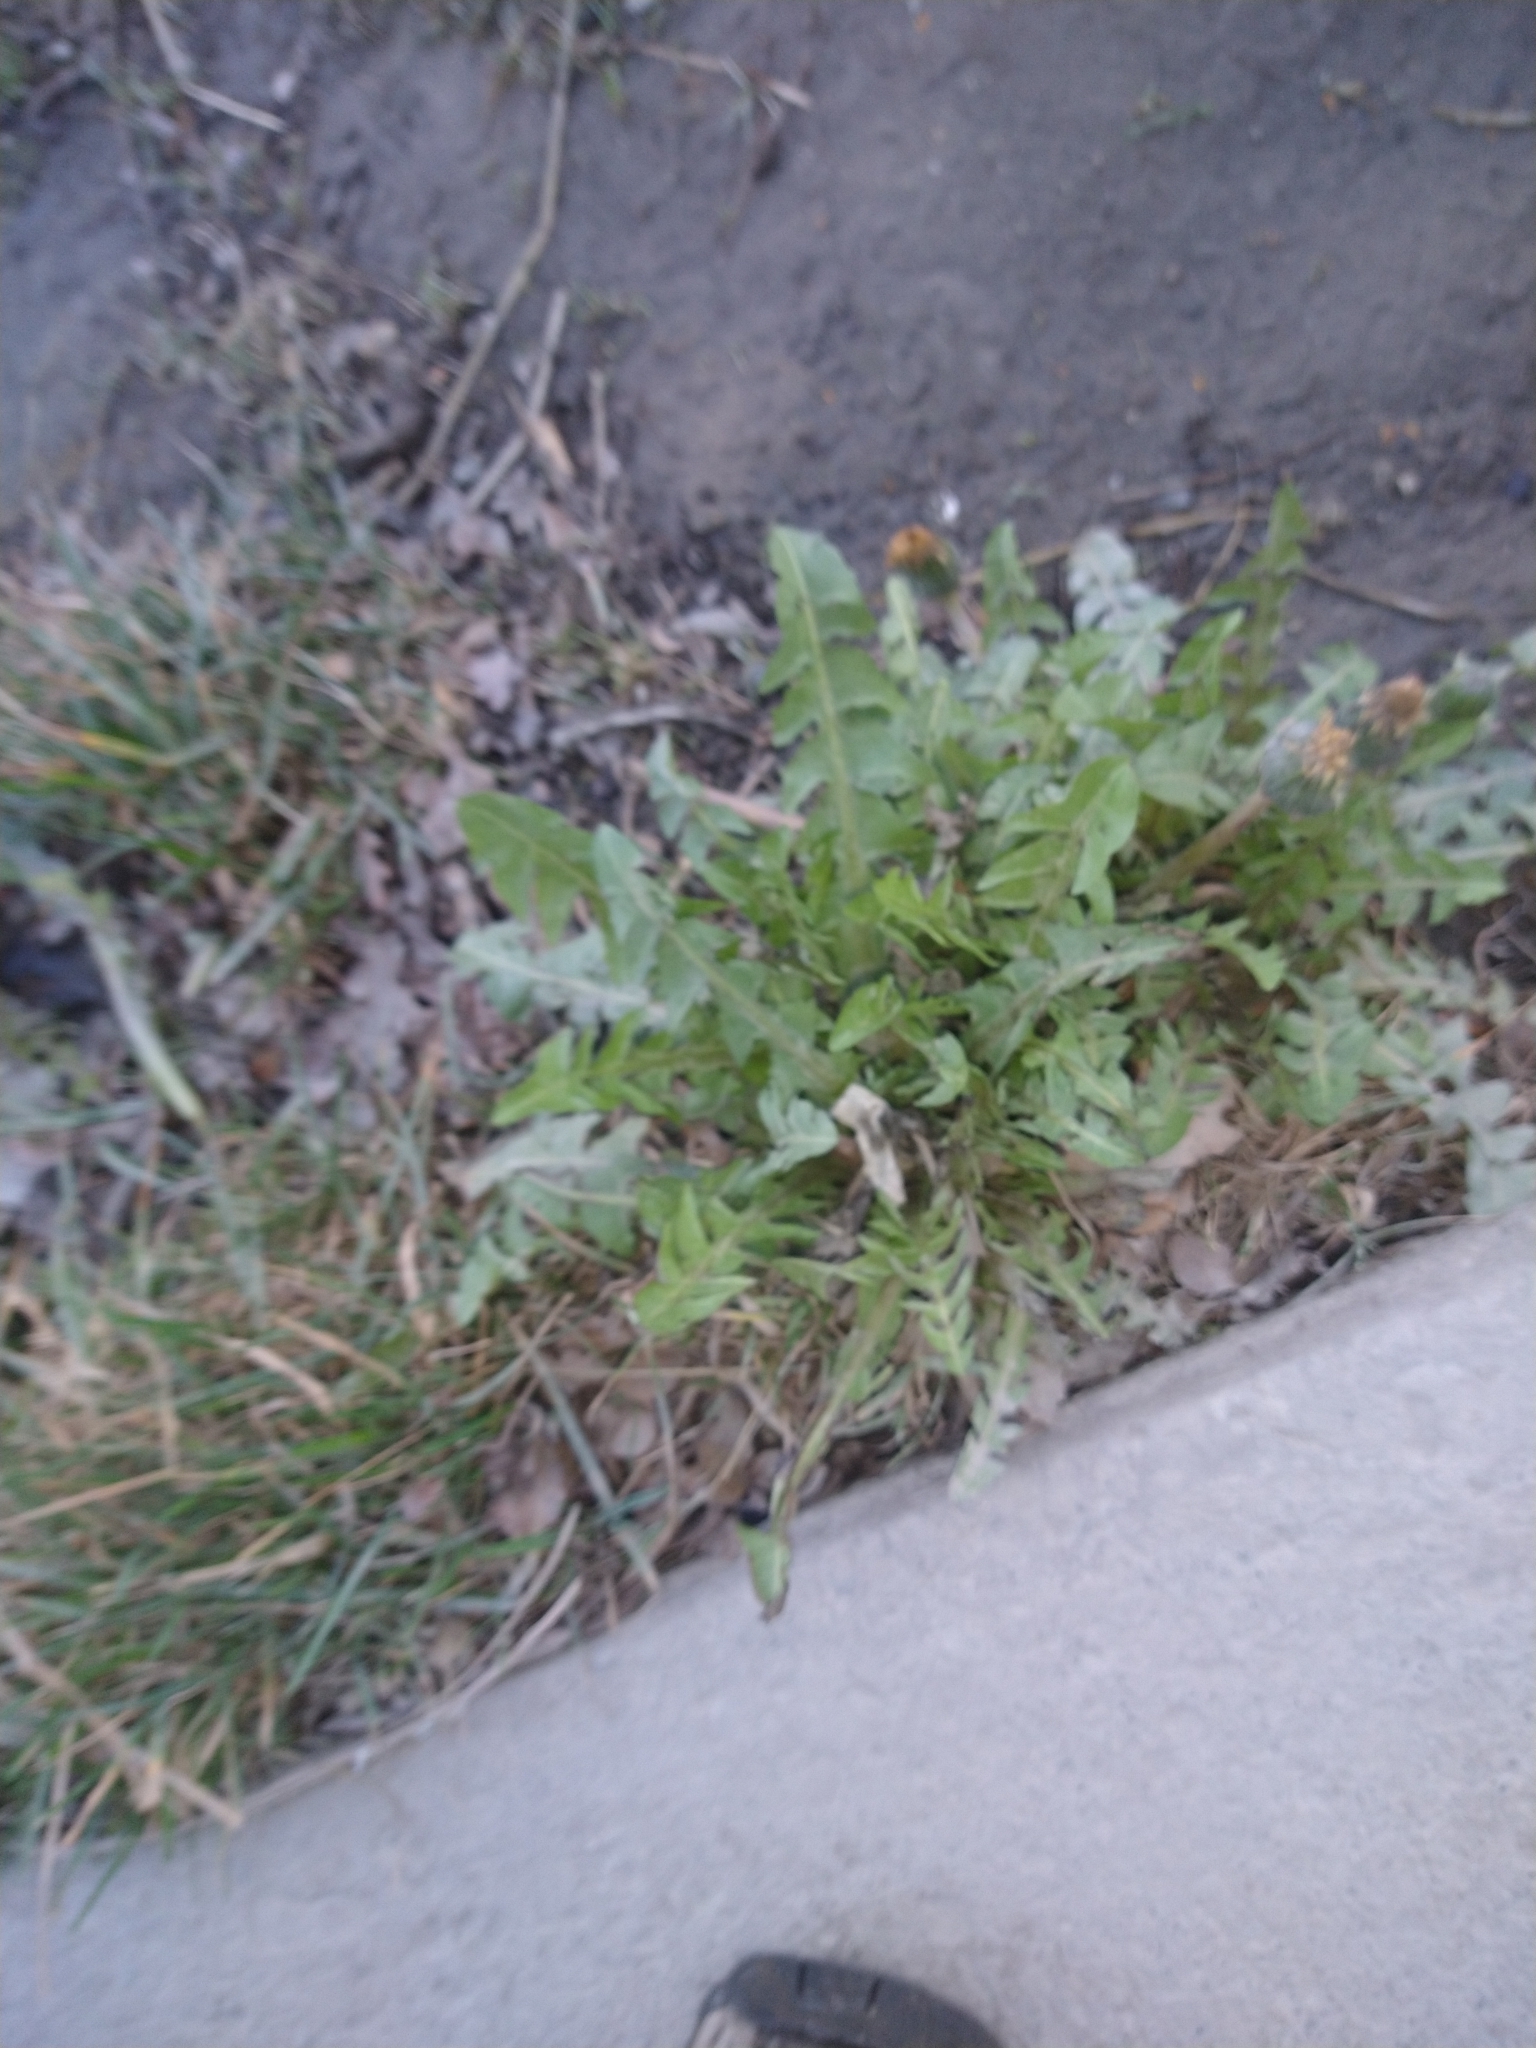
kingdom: Plantae
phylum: Tracheophyta
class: Magnoliopsida
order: Asterales
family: Asteraceae
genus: Taraxacum
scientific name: Taraxacum officinale
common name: Common dandelion
